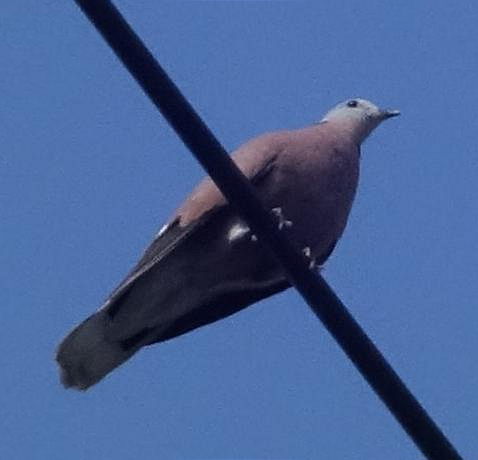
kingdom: Animalia
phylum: Chordata
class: Aves
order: Columbiformes
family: Columbidae
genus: Streptopelia
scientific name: Streptopelia tranquebarica
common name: Red turtle dove
